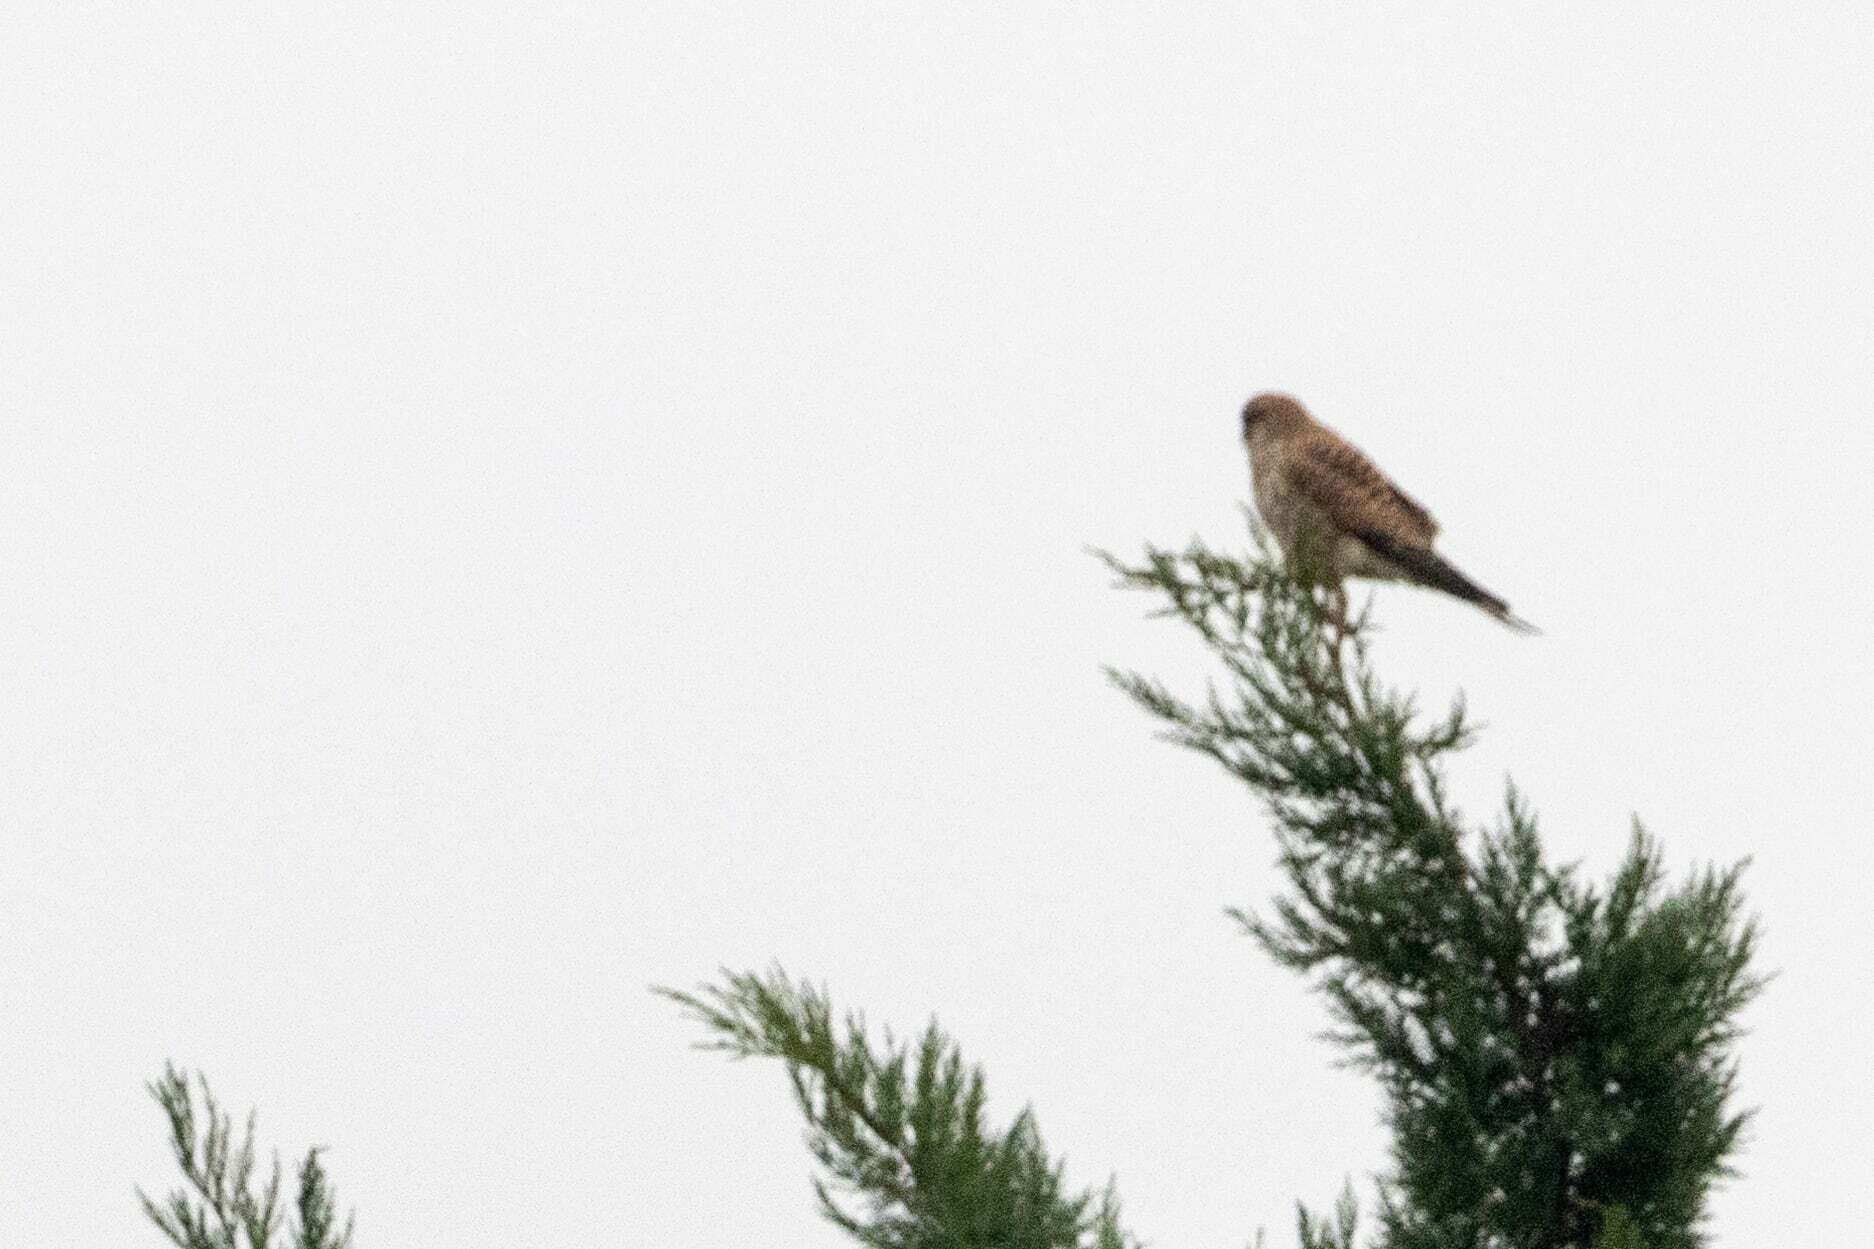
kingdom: Animalia
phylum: Chordata
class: Aves
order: Falconiformes
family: Falconidae
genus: Falco
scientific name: Falco tinnunculus
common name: Common kestrel
